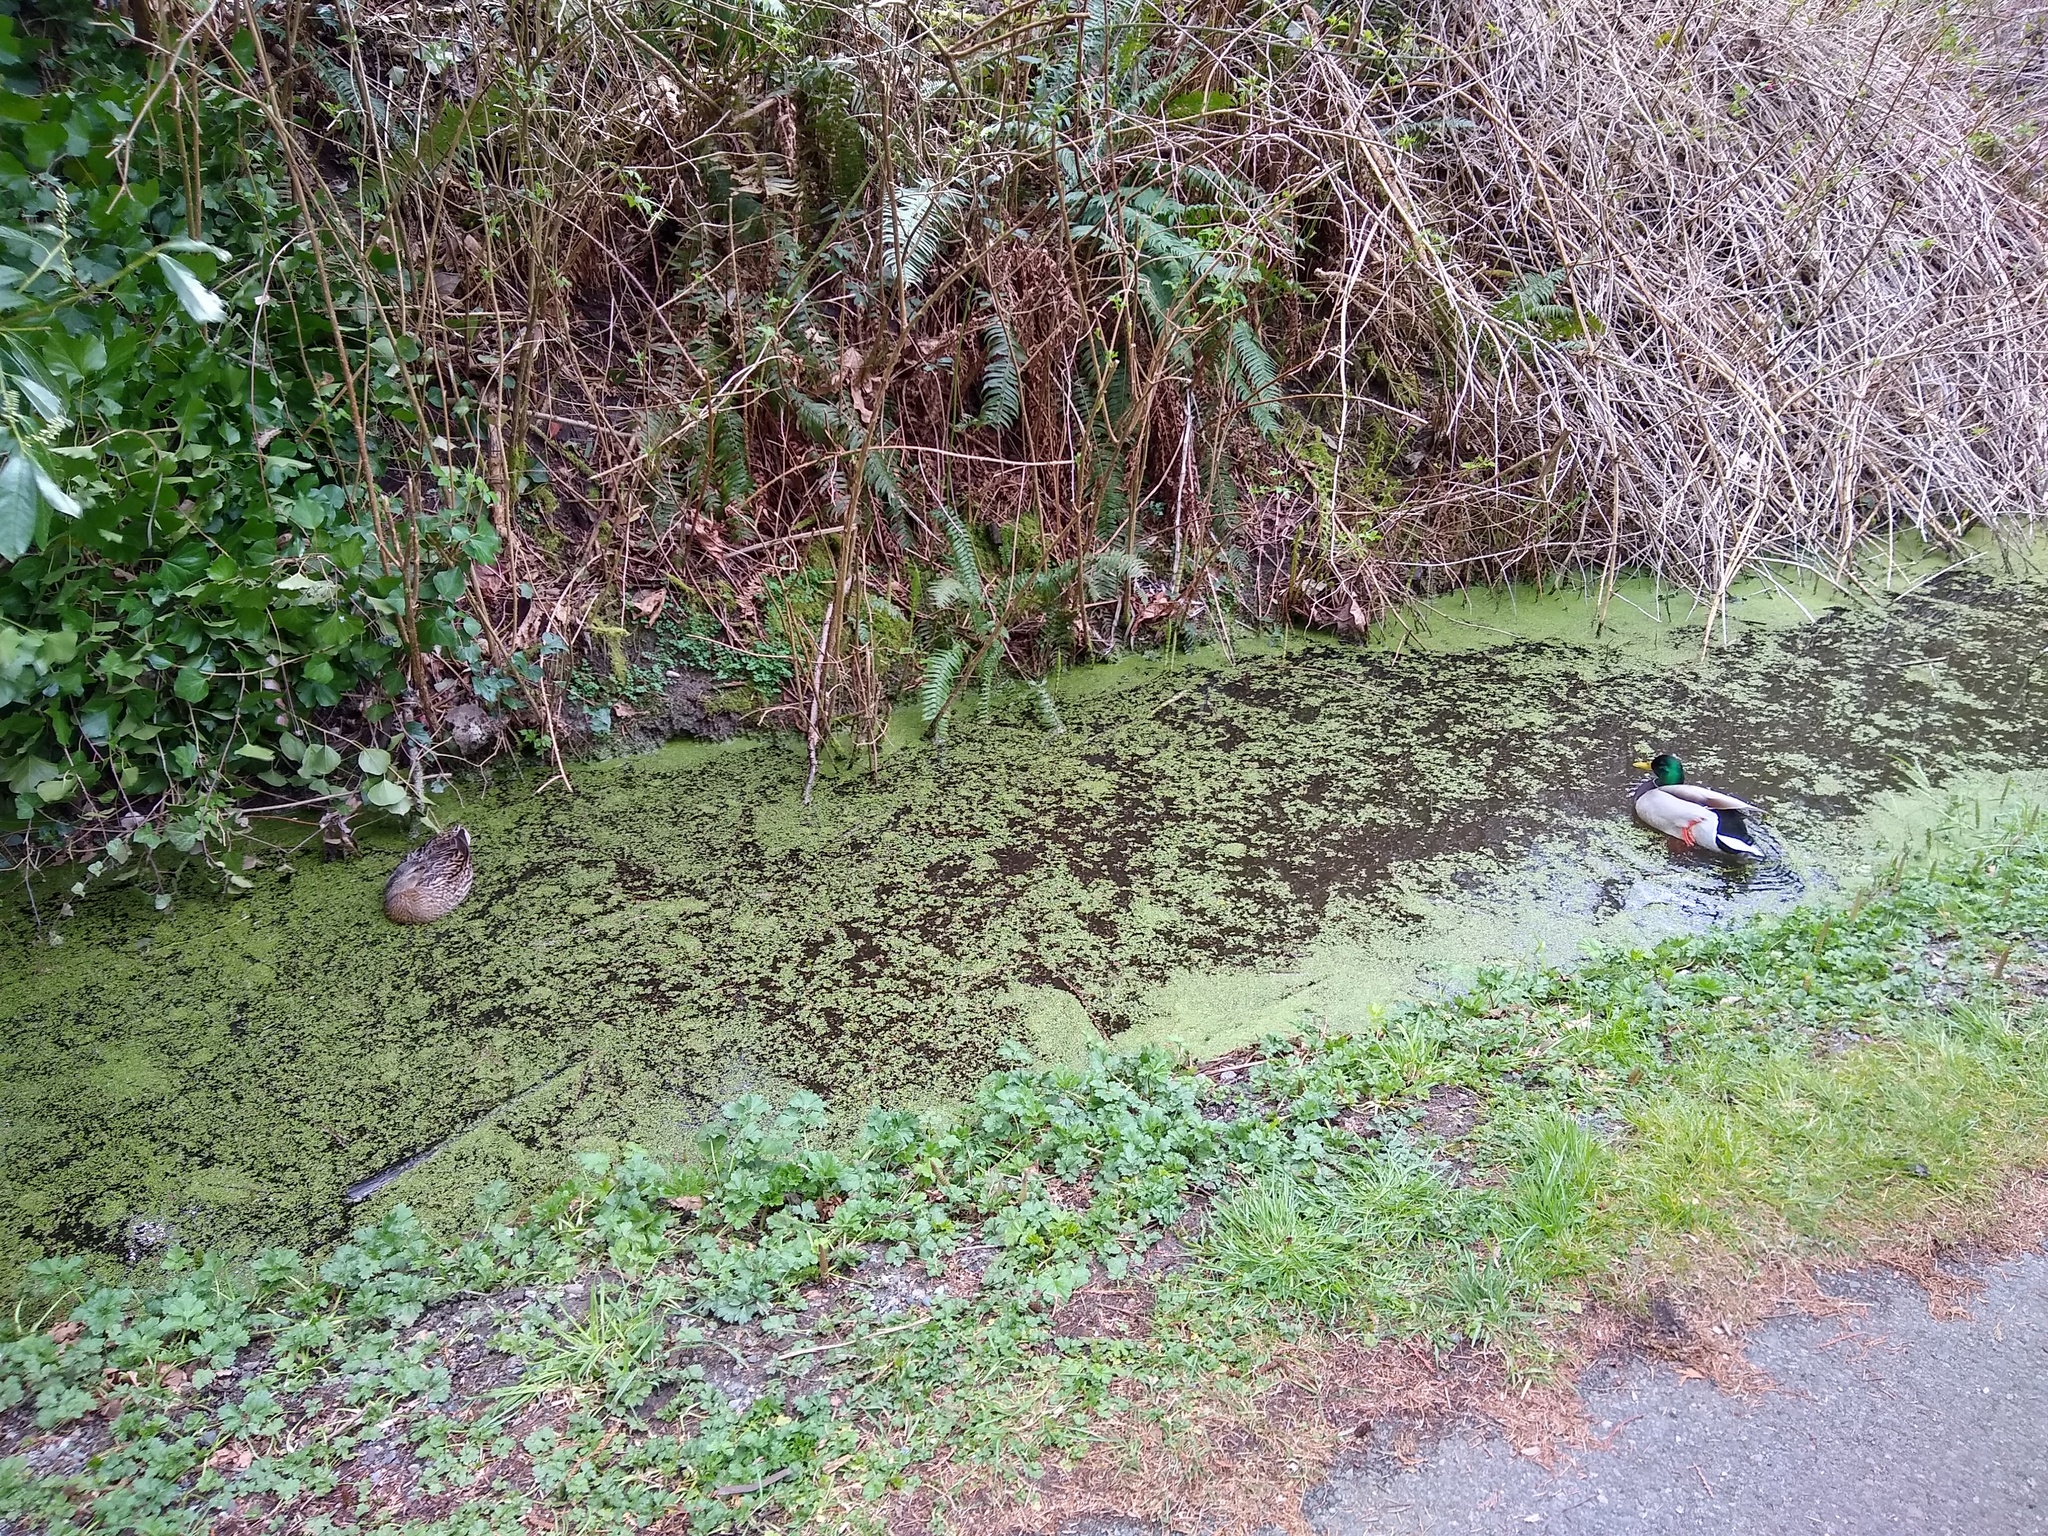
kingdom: Animalia
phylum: Chordata
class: Aves
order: Anseriformes
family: Anatidae
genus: Anas
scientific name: Anas platyrhynchos
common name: Mallard
